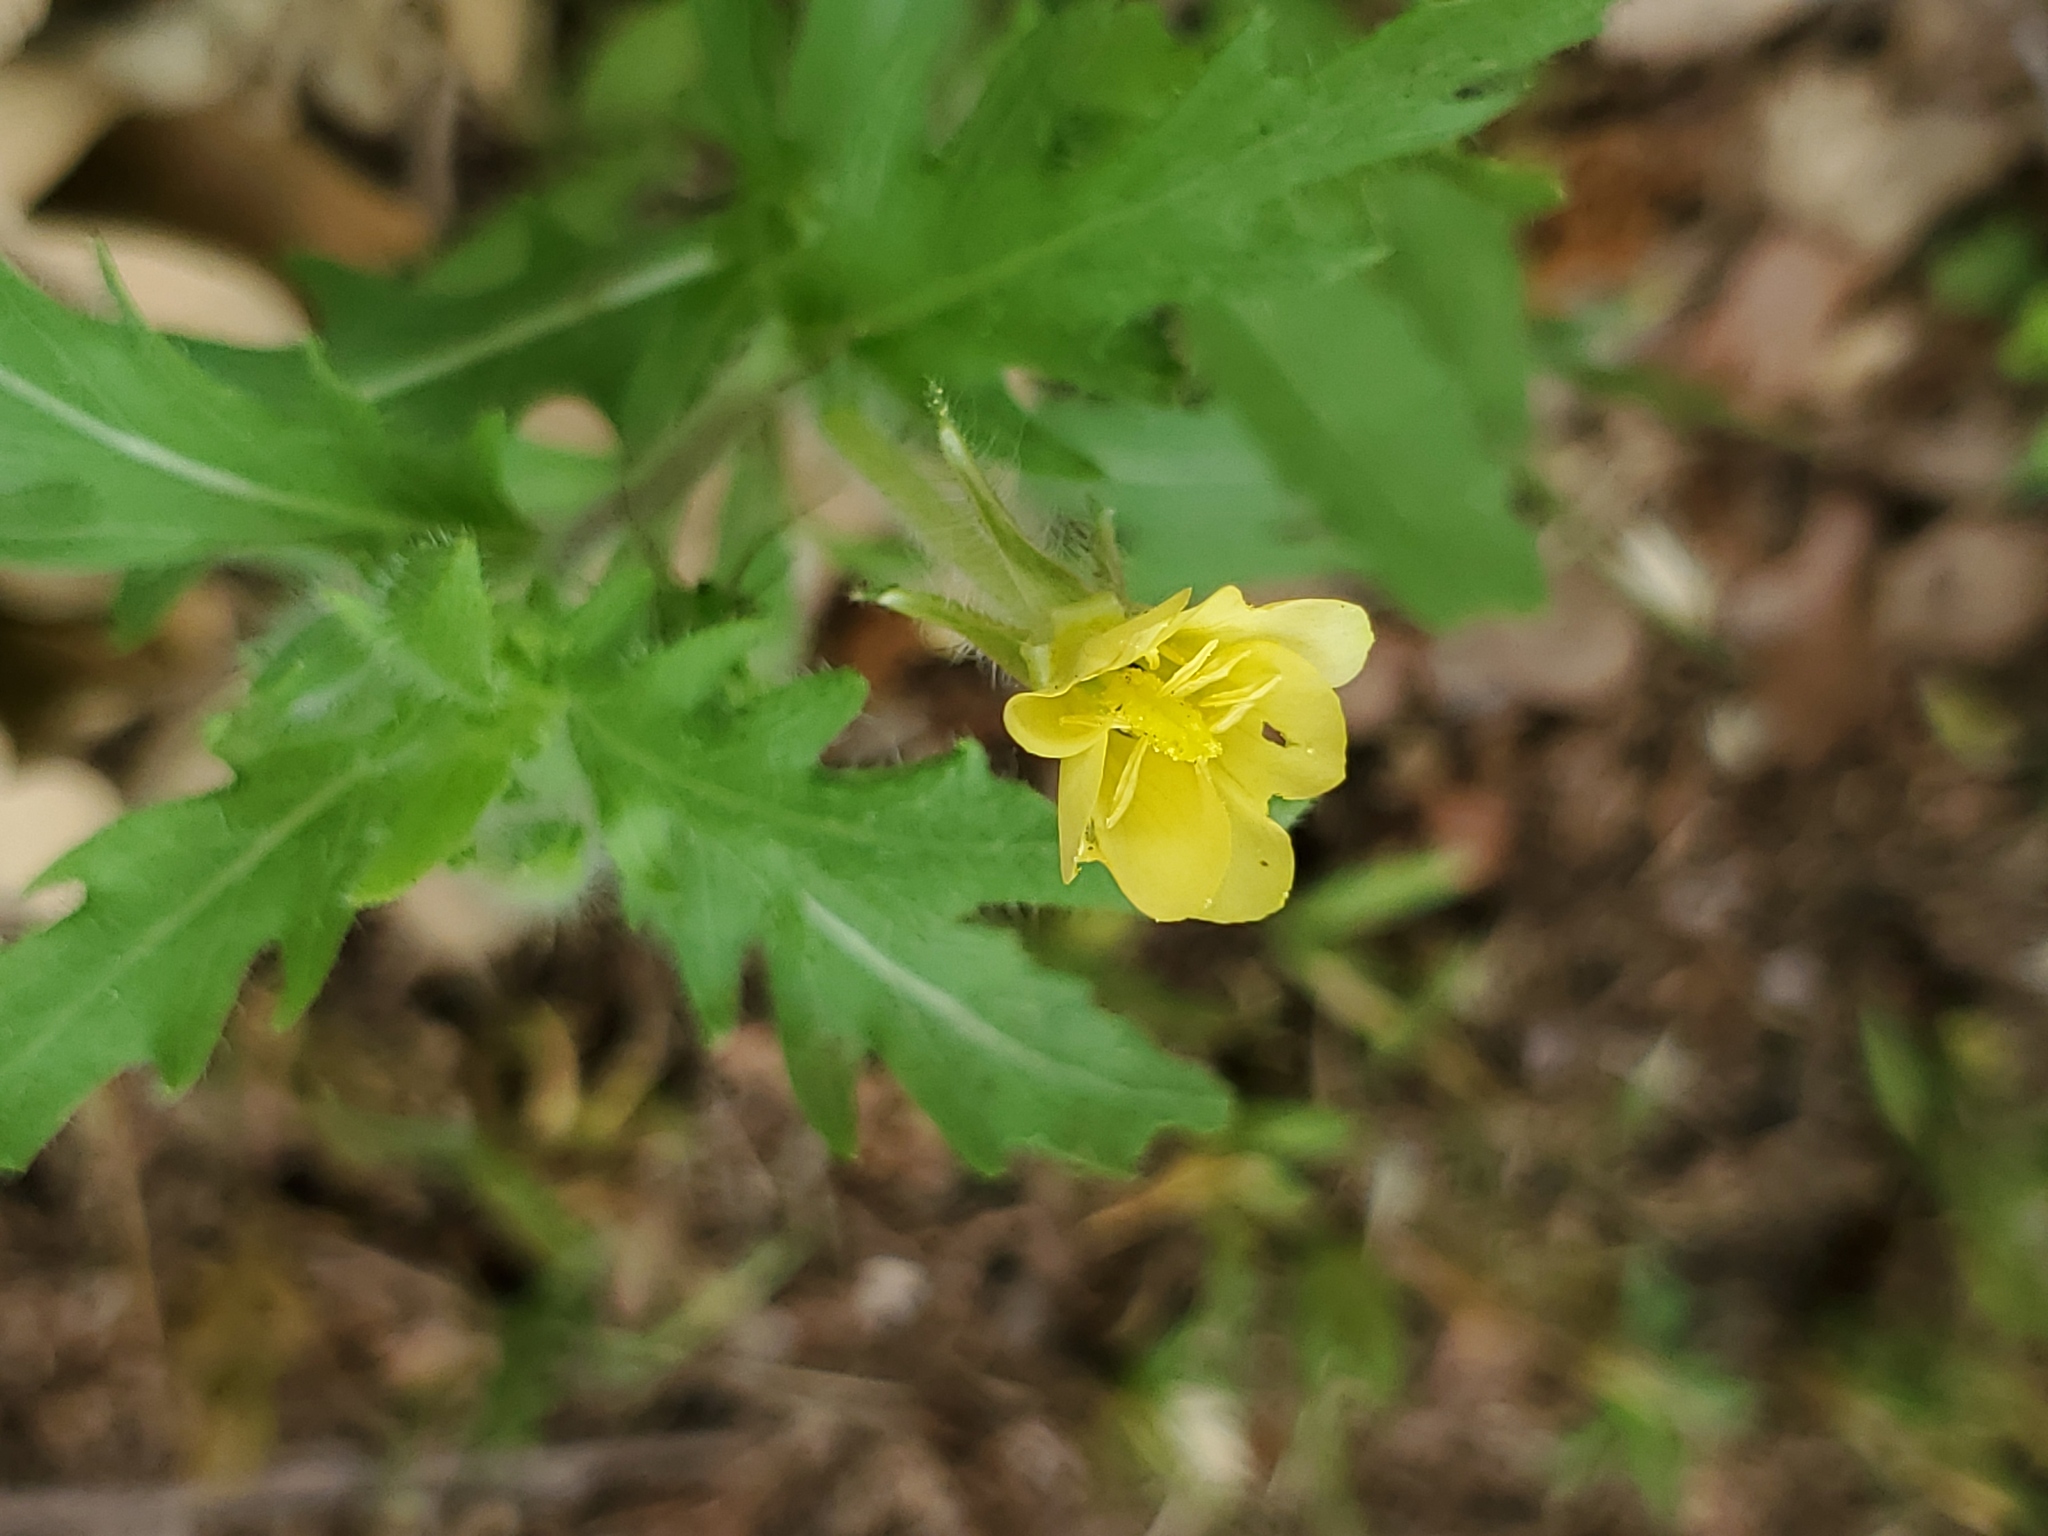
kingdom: Plantae
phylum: Tracheophyta
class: Magnoliopsida
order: Myrtales
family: Onagraceae
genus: Oenothera
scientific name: Oenothera laciniata
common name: Cut-leaved evening-primrose
